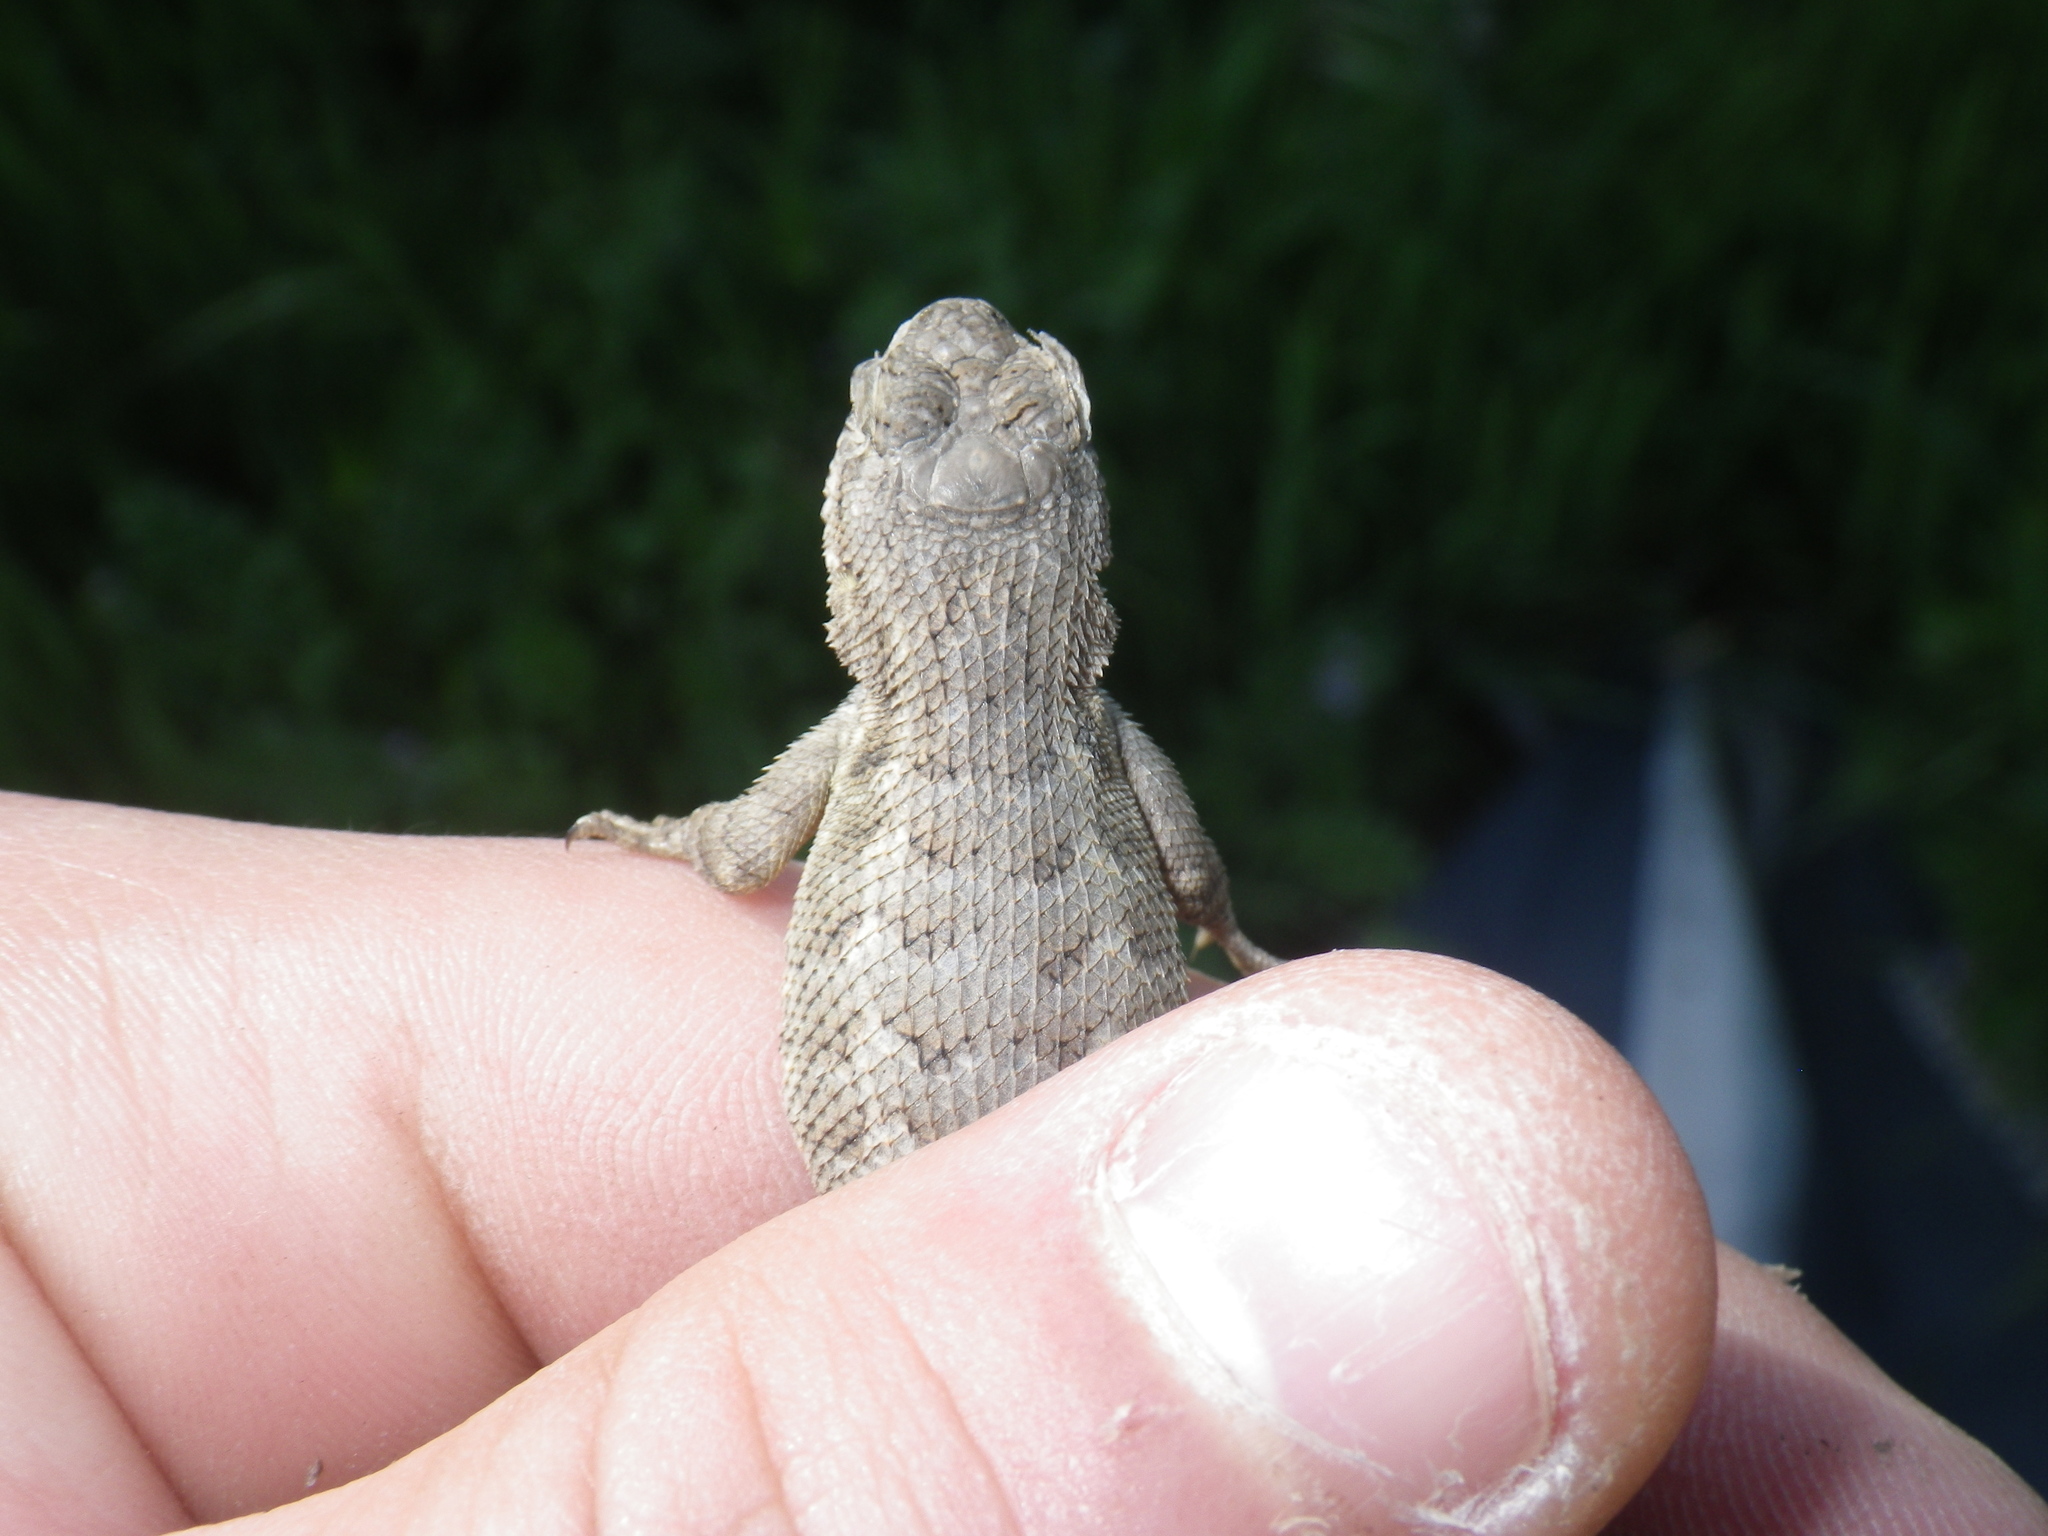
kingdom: Animalia
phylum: Chordata
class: Squamata
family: Phrynosomatidae
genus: Sceloporus
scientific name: Sceloporus occidentalis
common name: Western fence lizard
